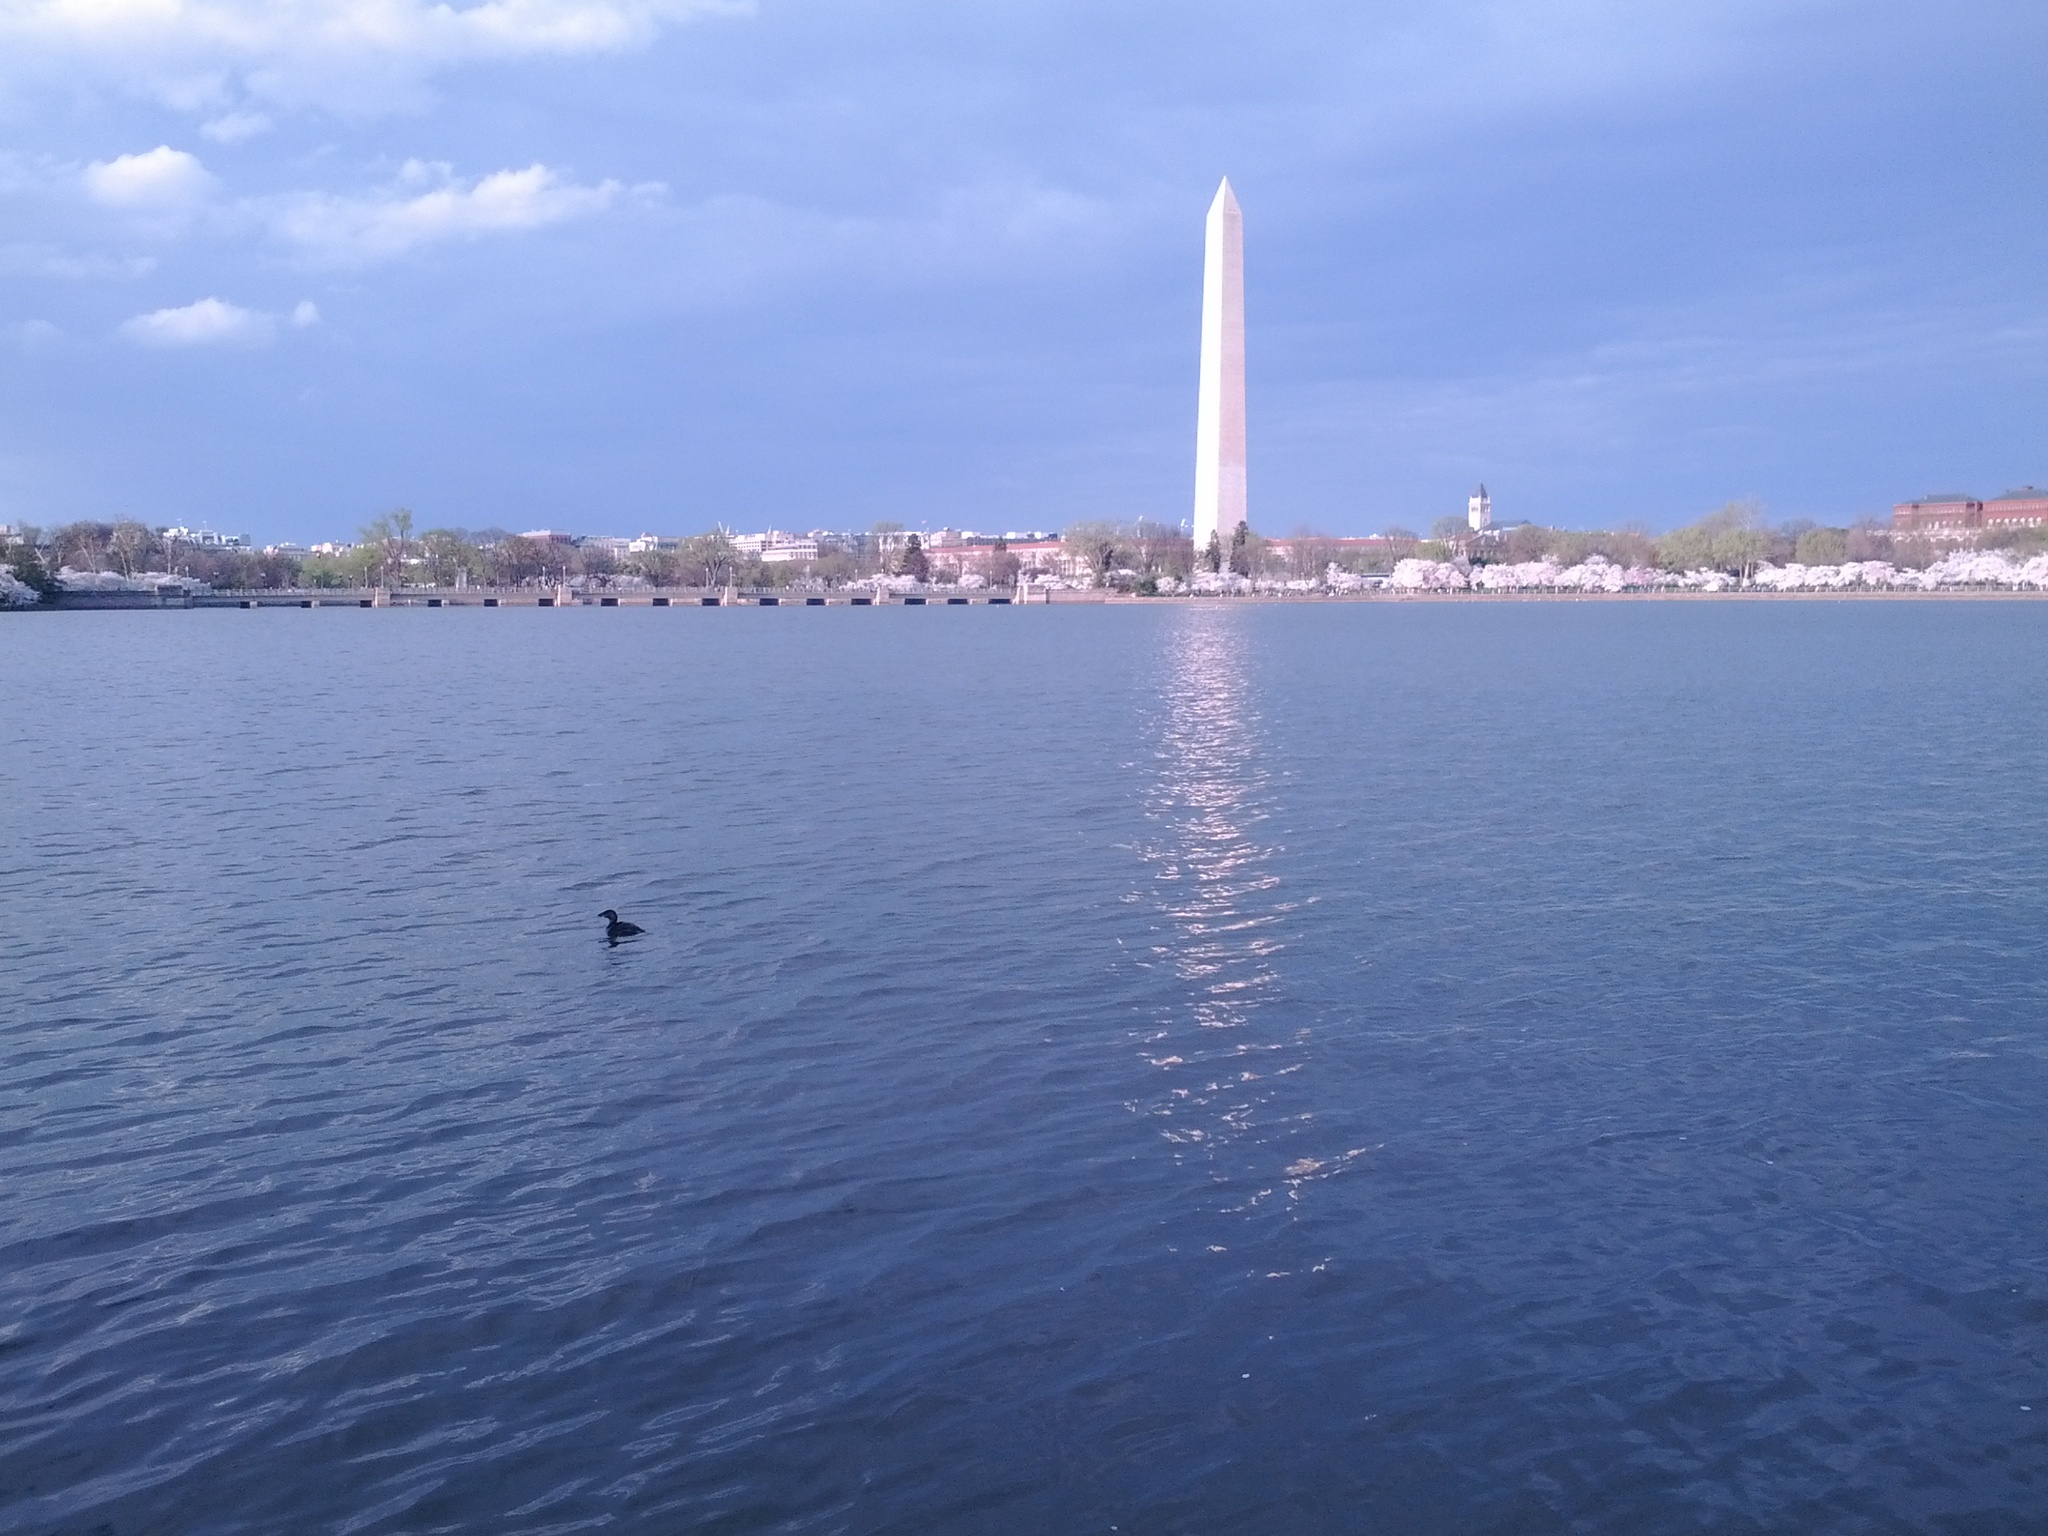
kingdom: Animalia
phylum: Chordata
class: Aves
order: Podicipediformes
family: Podicipedidae
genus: Podilymbus
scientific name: Podilymbus podiceps
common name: Pied-billed grebe
